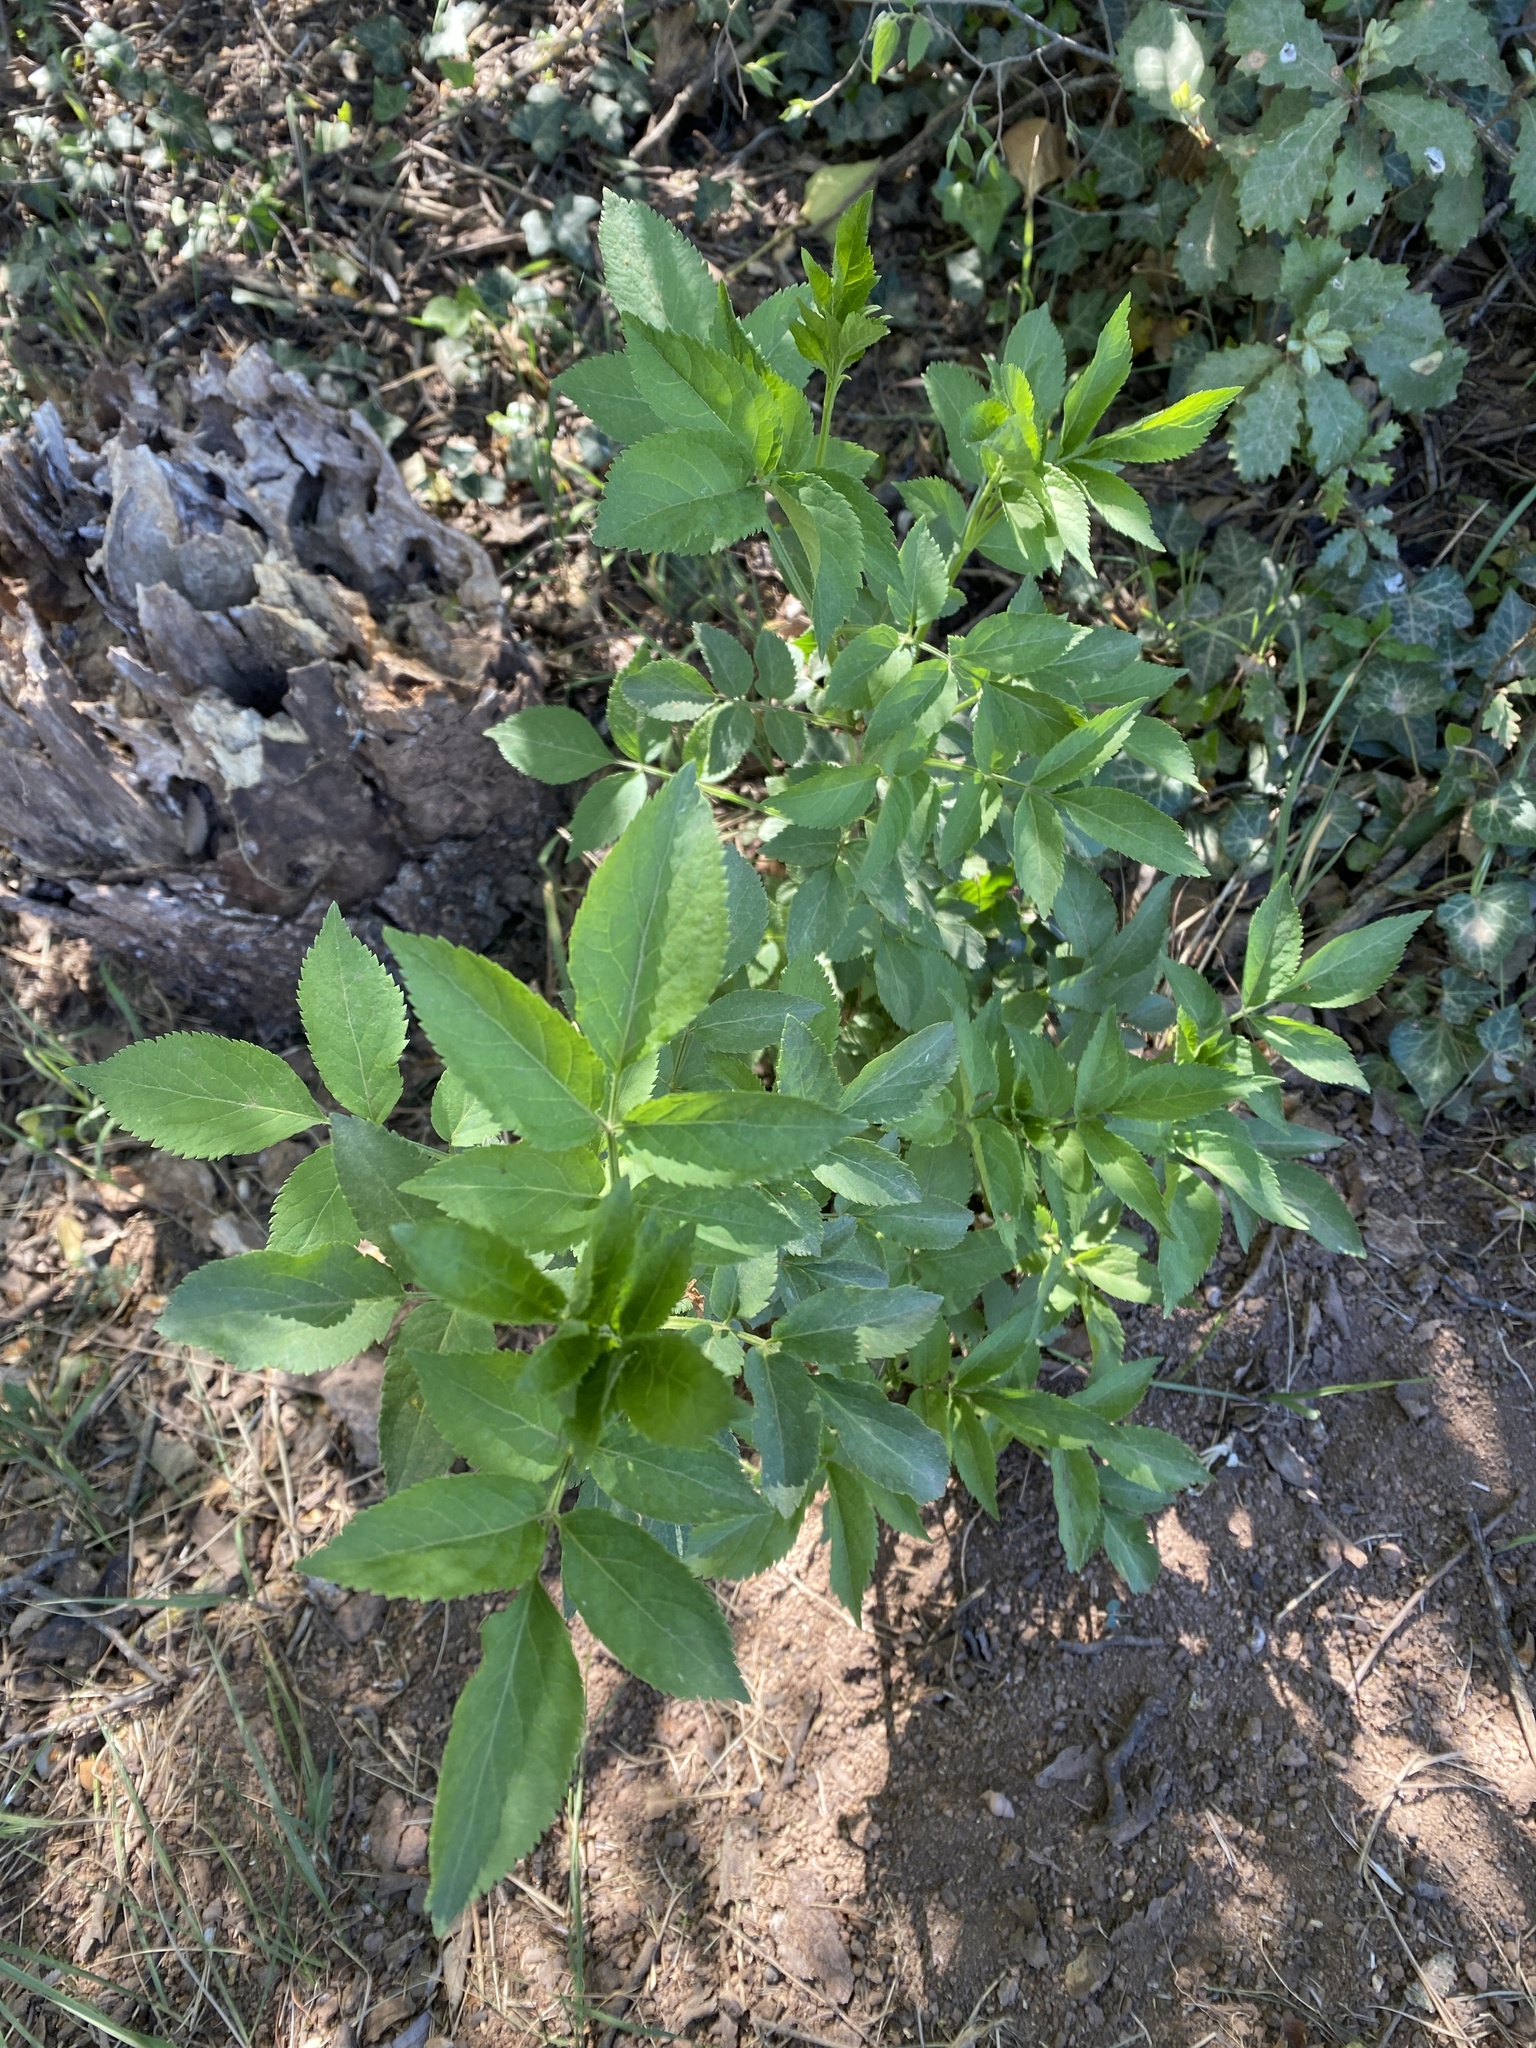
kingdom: Plantae
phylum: Tracheophyta
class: Magnoliopsida
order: Dipsacales
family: Viburnaceae
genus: Sambucus
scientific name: Sambucus nigra
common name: Elder
